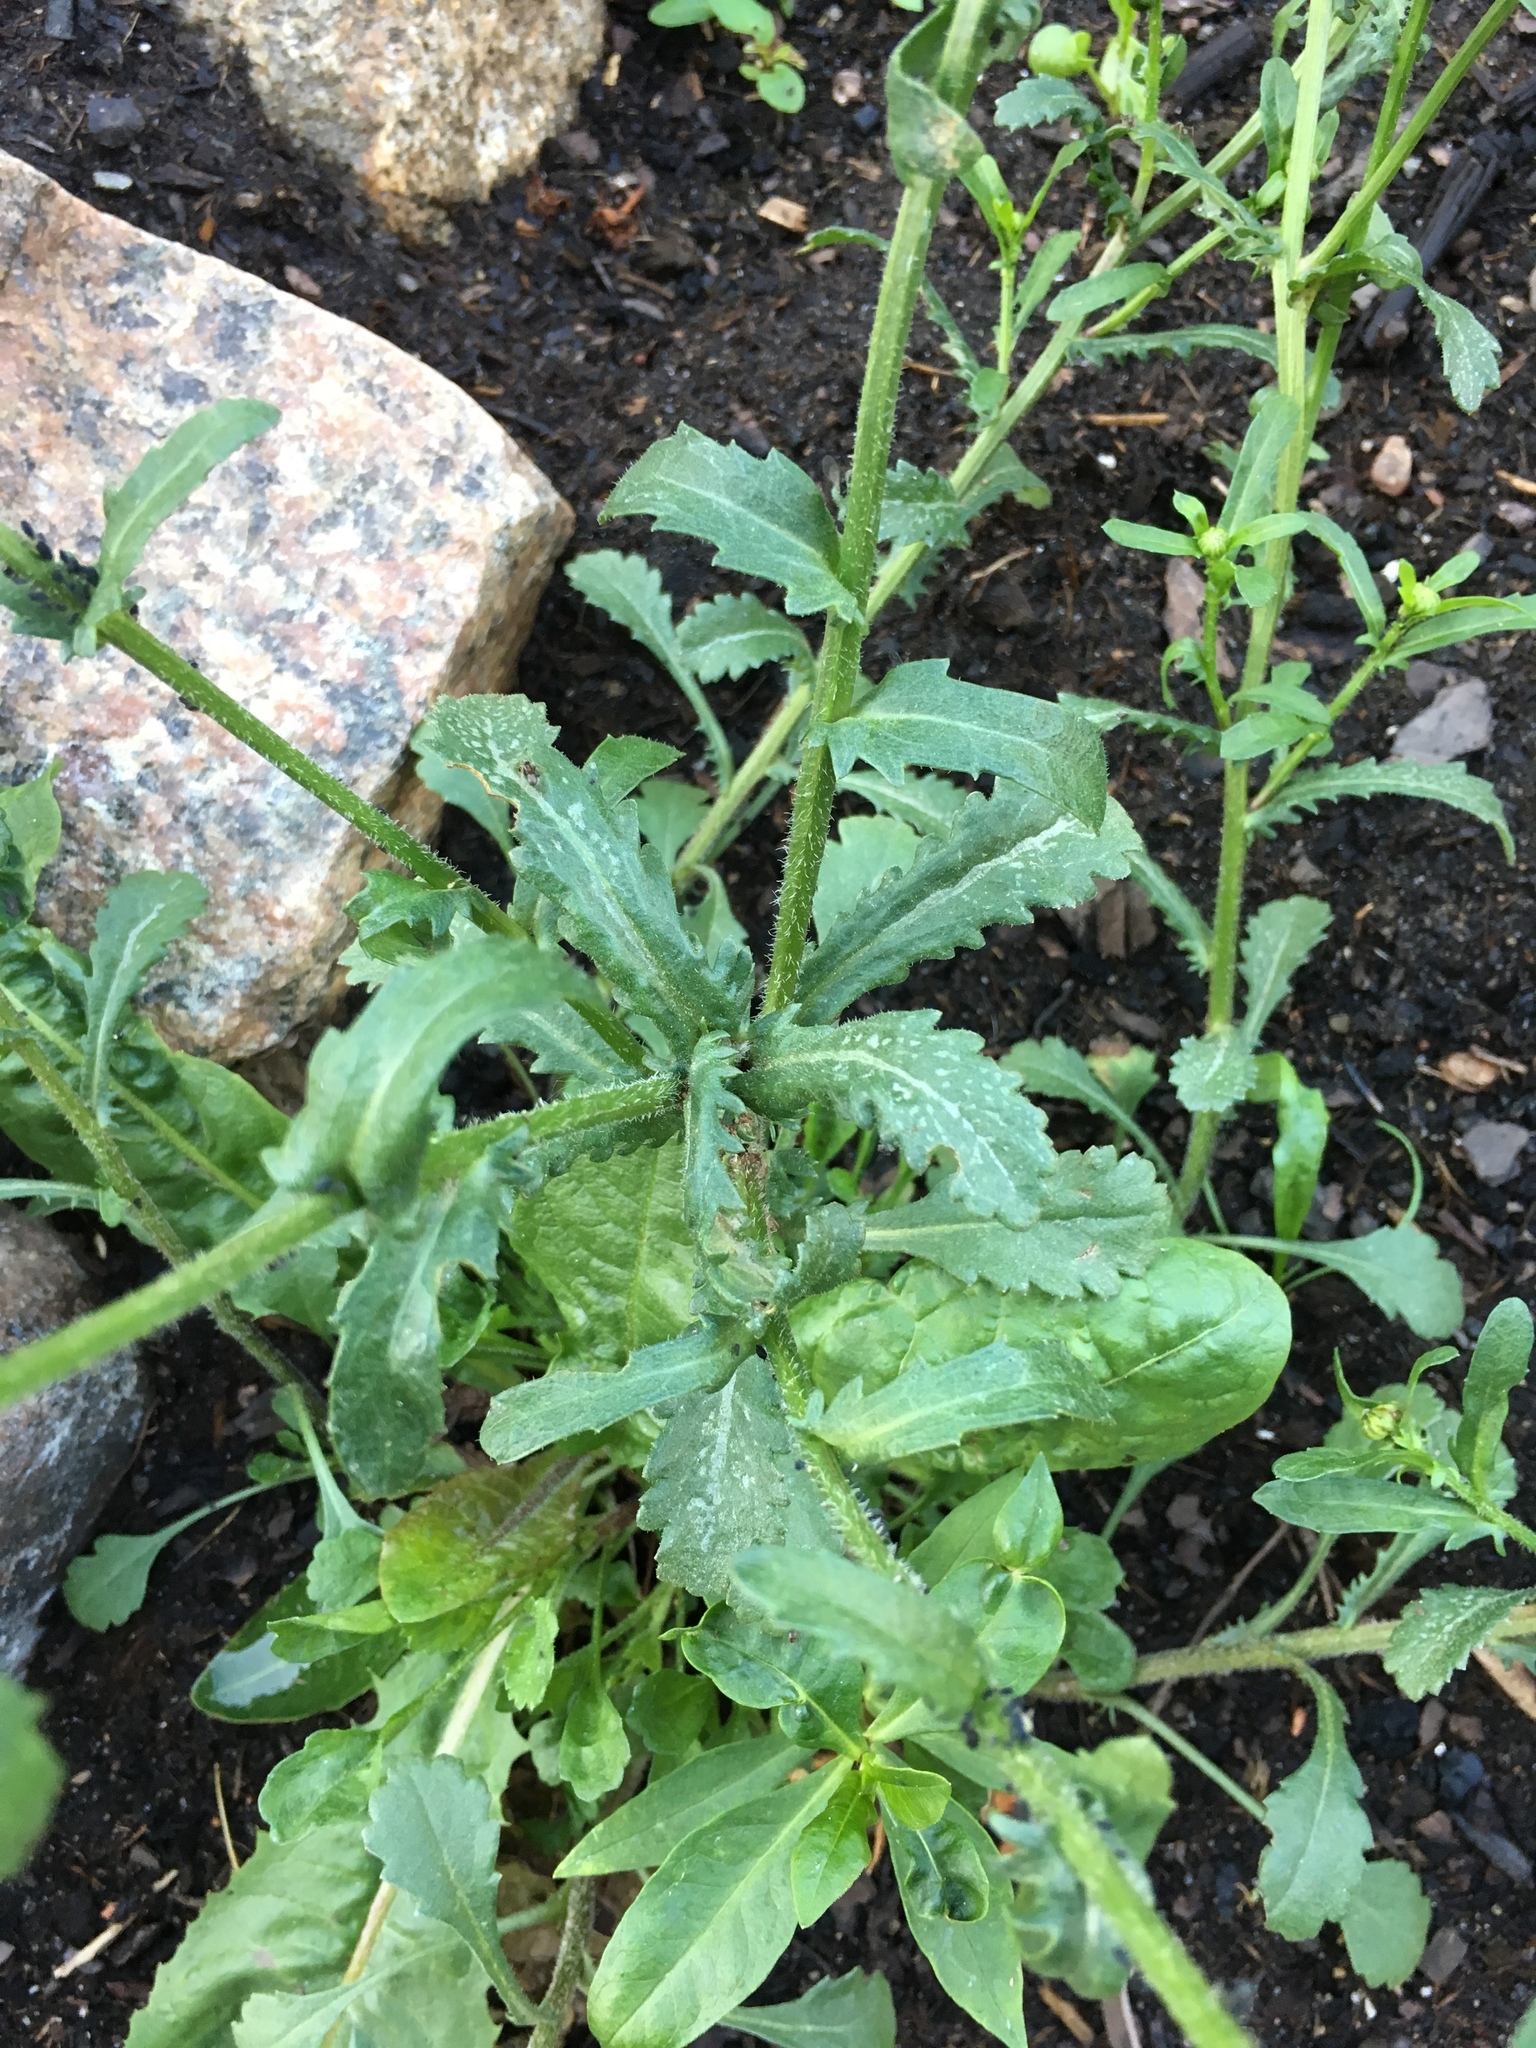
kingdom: Plantae
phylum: Tracheophyta
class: Magnoliopsida
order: Asterales
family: Asteraceae
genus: Leucanthemum
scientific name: Leucanthemum vulgare
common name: Oxeye daisy
